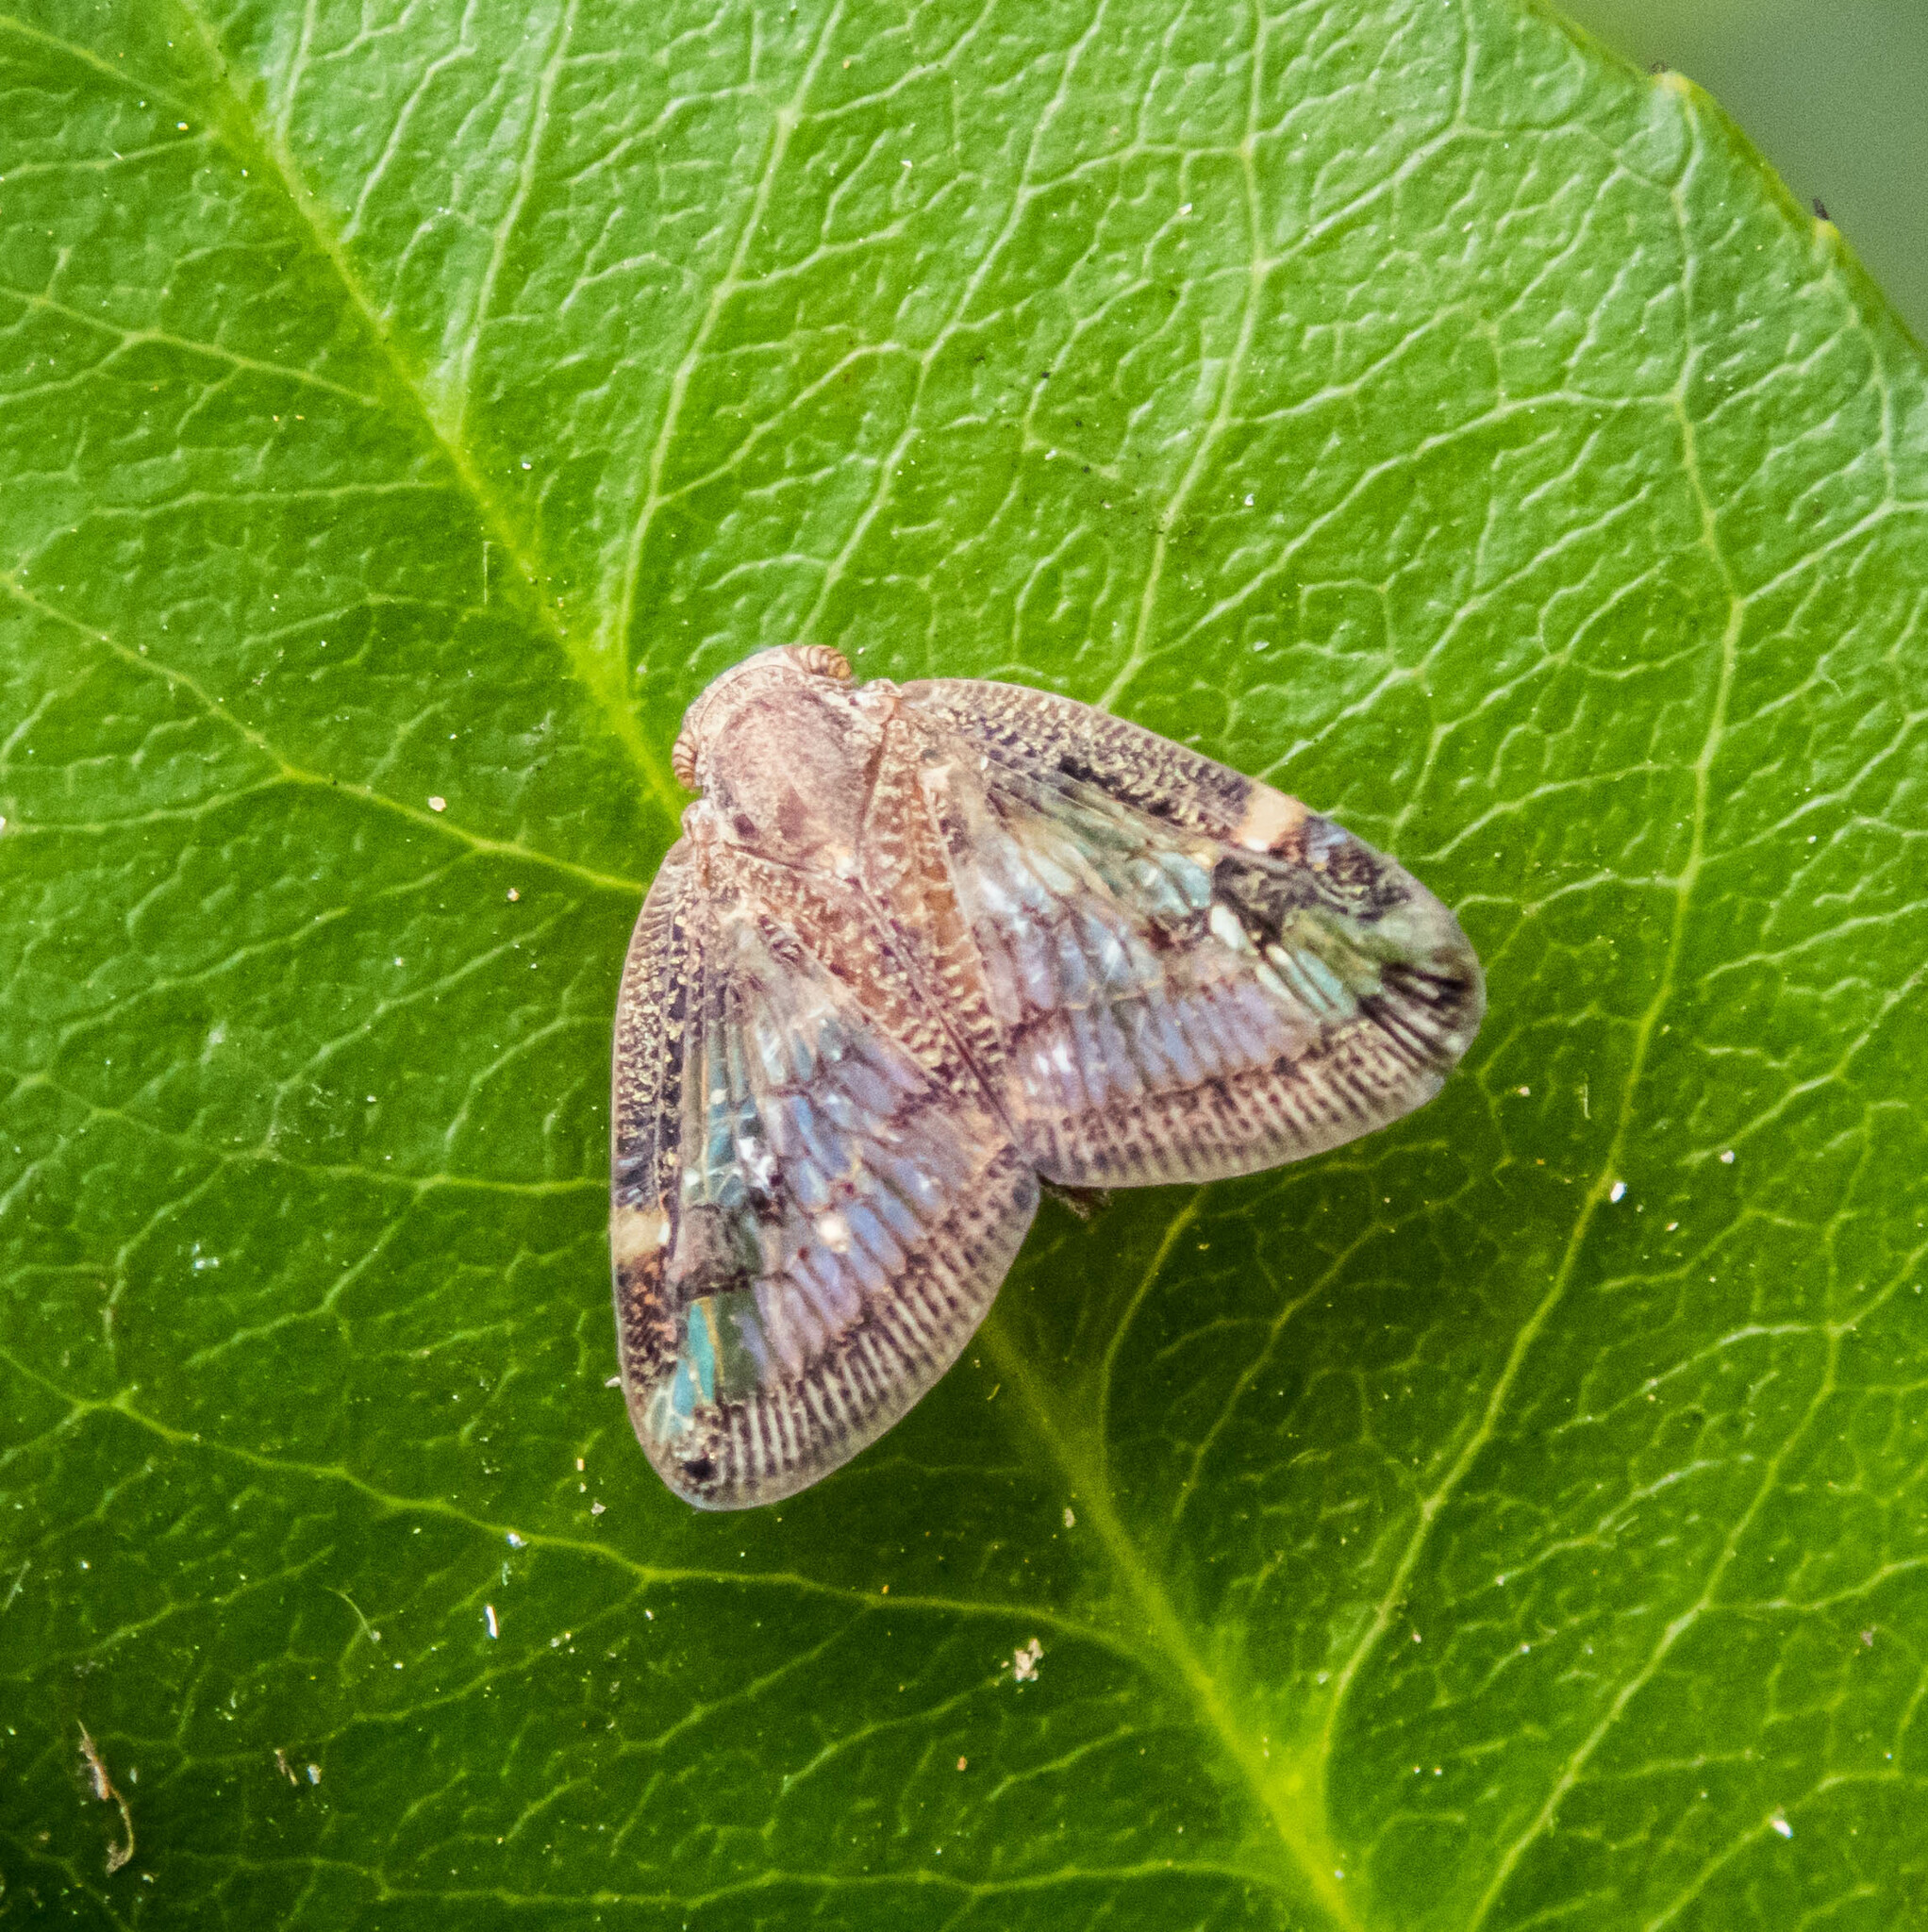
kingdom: Animalia
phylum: Arthropoda
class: Insecta
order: Hemiptera
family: Ricaniidae
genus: Scolypopa
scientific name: Scolypopa australis
